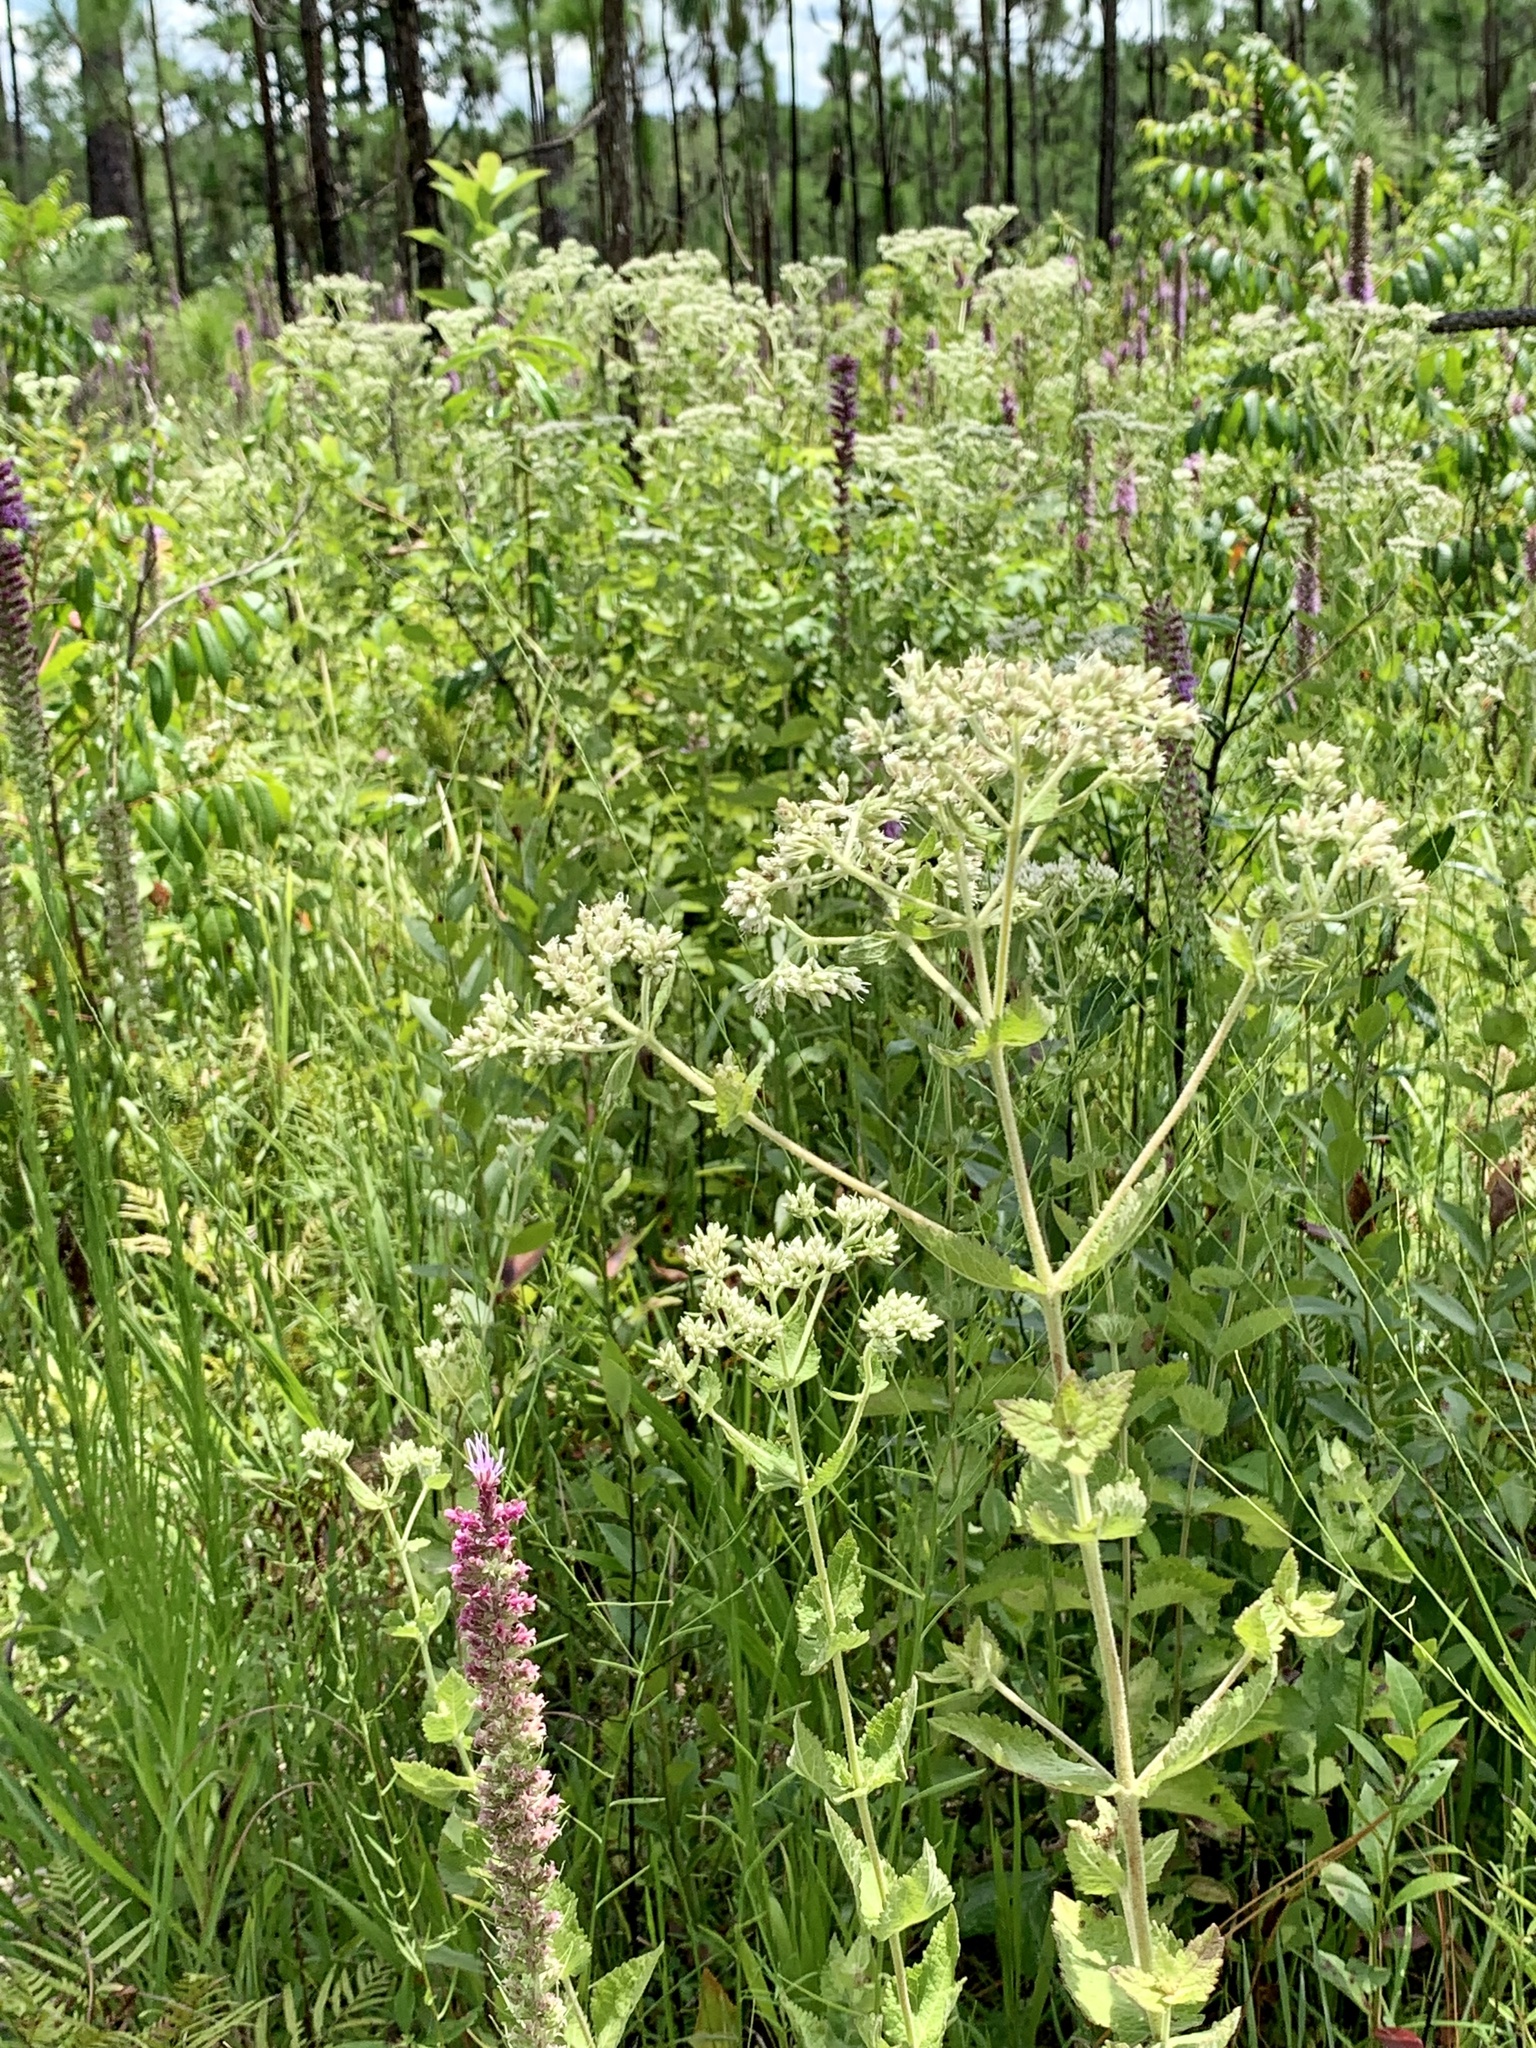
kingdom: Plantae
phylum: Tracheophyta
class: Magnoliopsida
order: Asterales
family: Asteraceae
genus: Eupatorium
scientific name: Eupatorium rotundifolium
